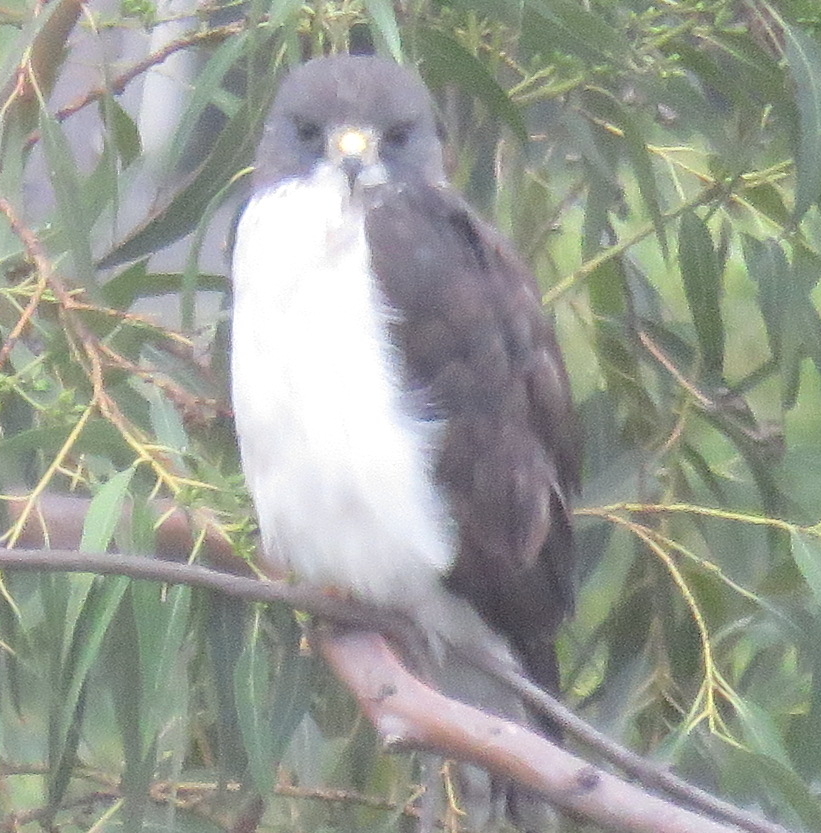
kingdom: Animalia
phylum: Chordata
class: Aves
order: Accipitriformes
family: Accipitridae
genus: Buteo
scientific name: Buteo brachyurus
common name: Short-tailed hawk
